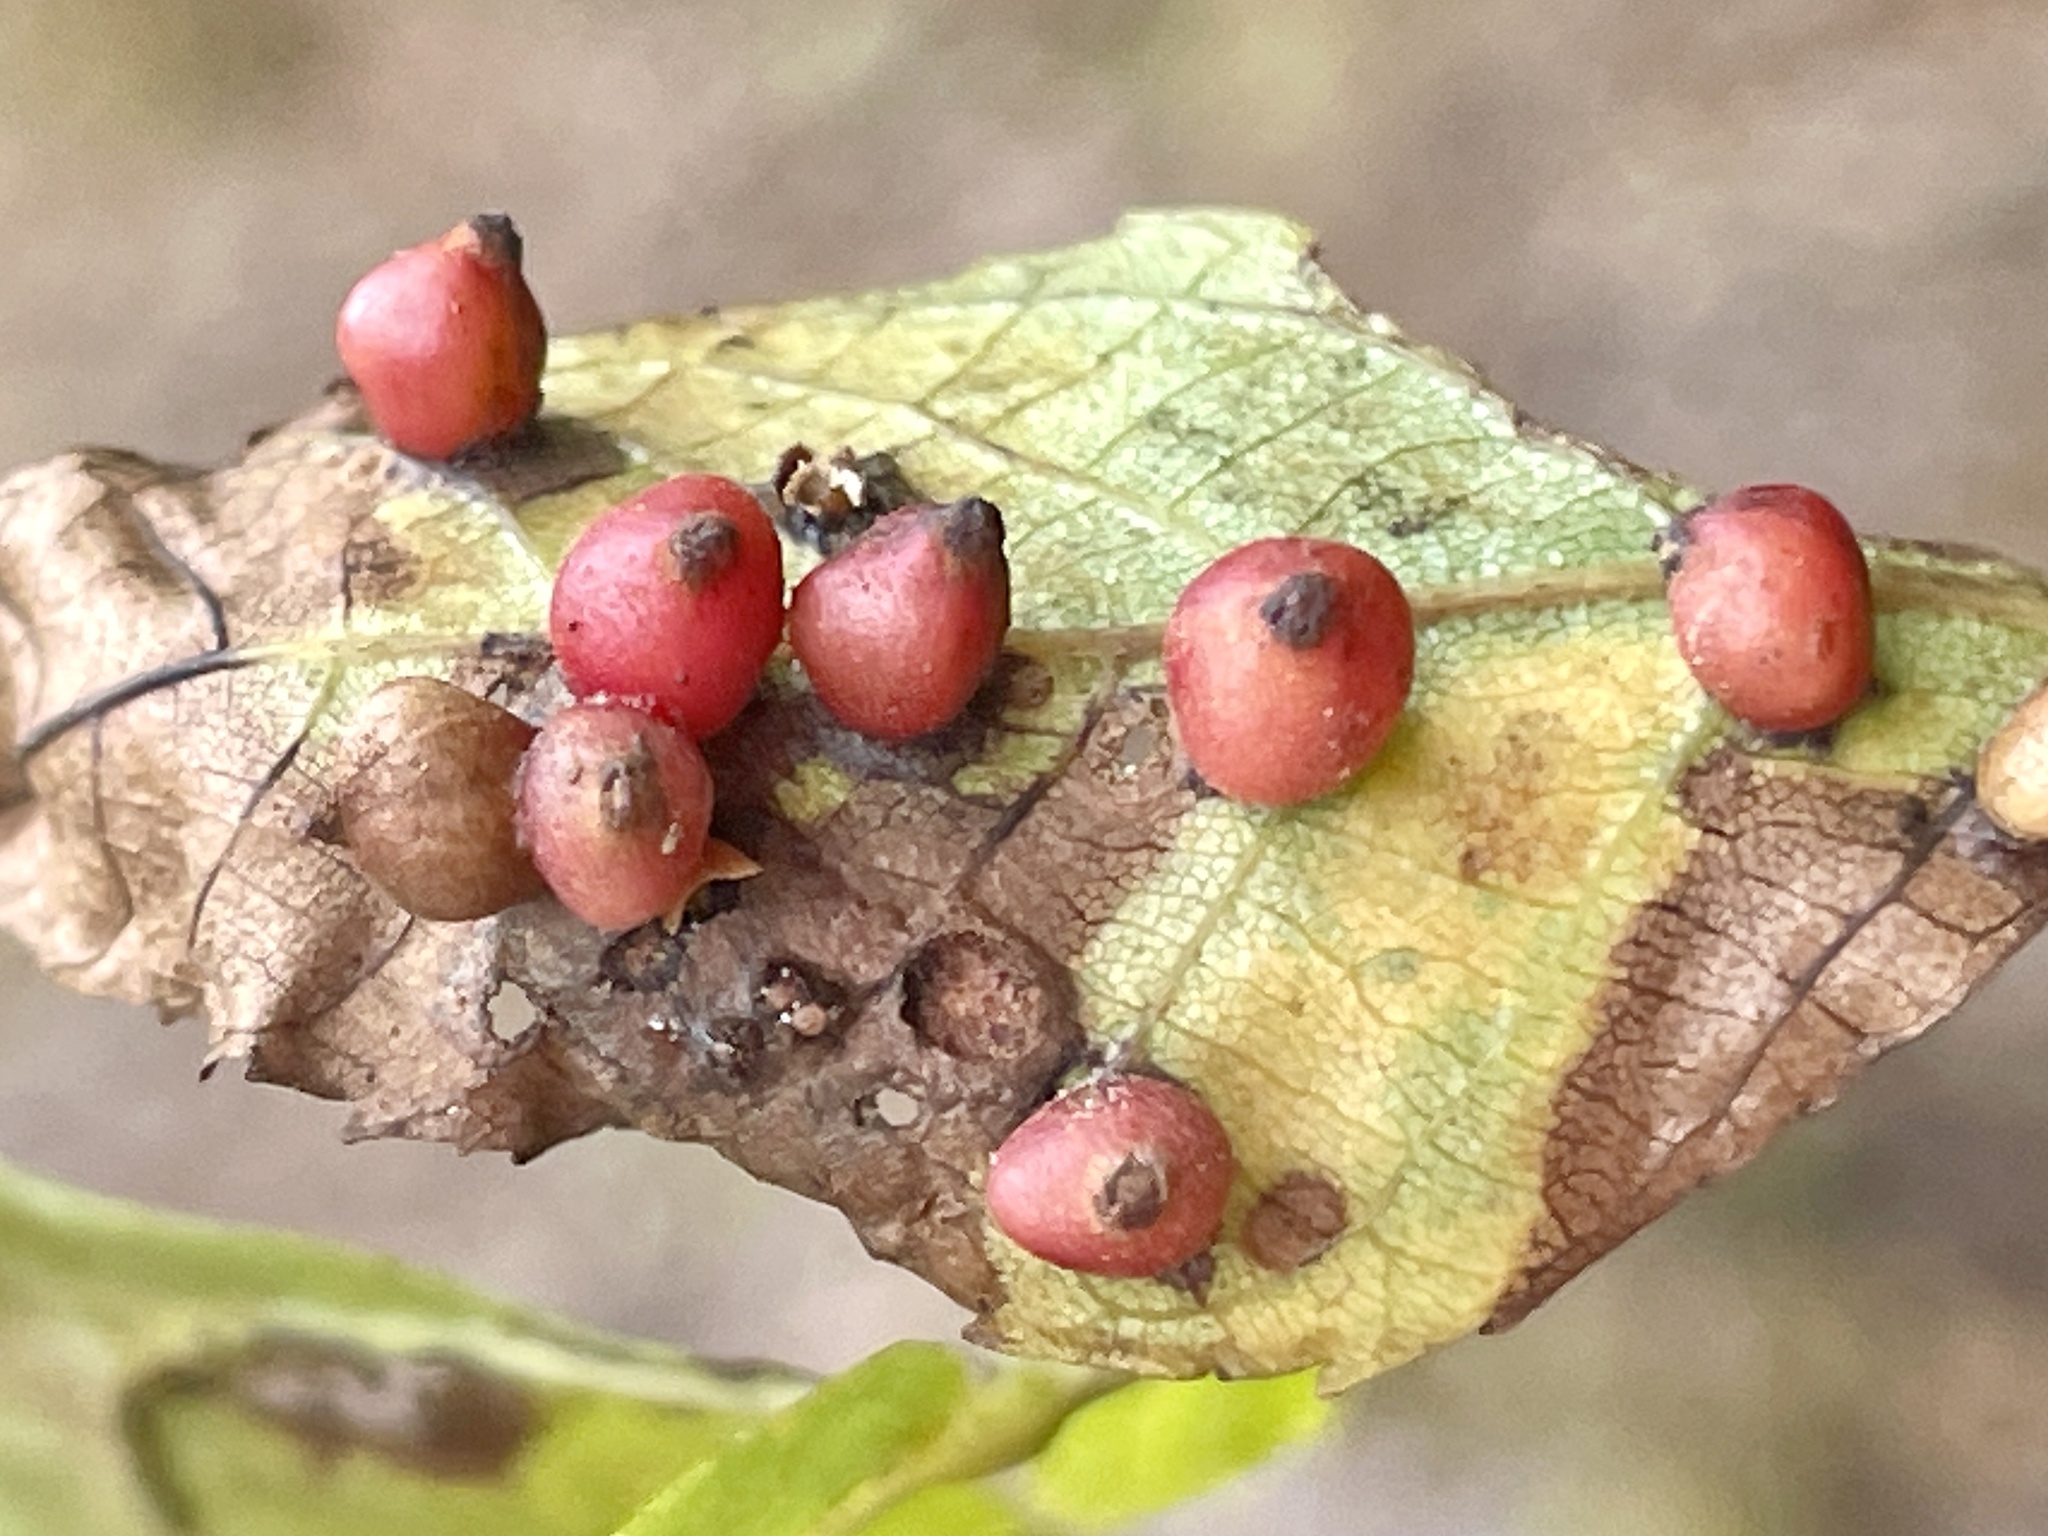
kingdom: Animalia
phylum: Arthropoda
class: Insecta
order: Diptera
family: Cecidomyiidae
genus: Caryomyia
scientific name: Caryomyia caryae
